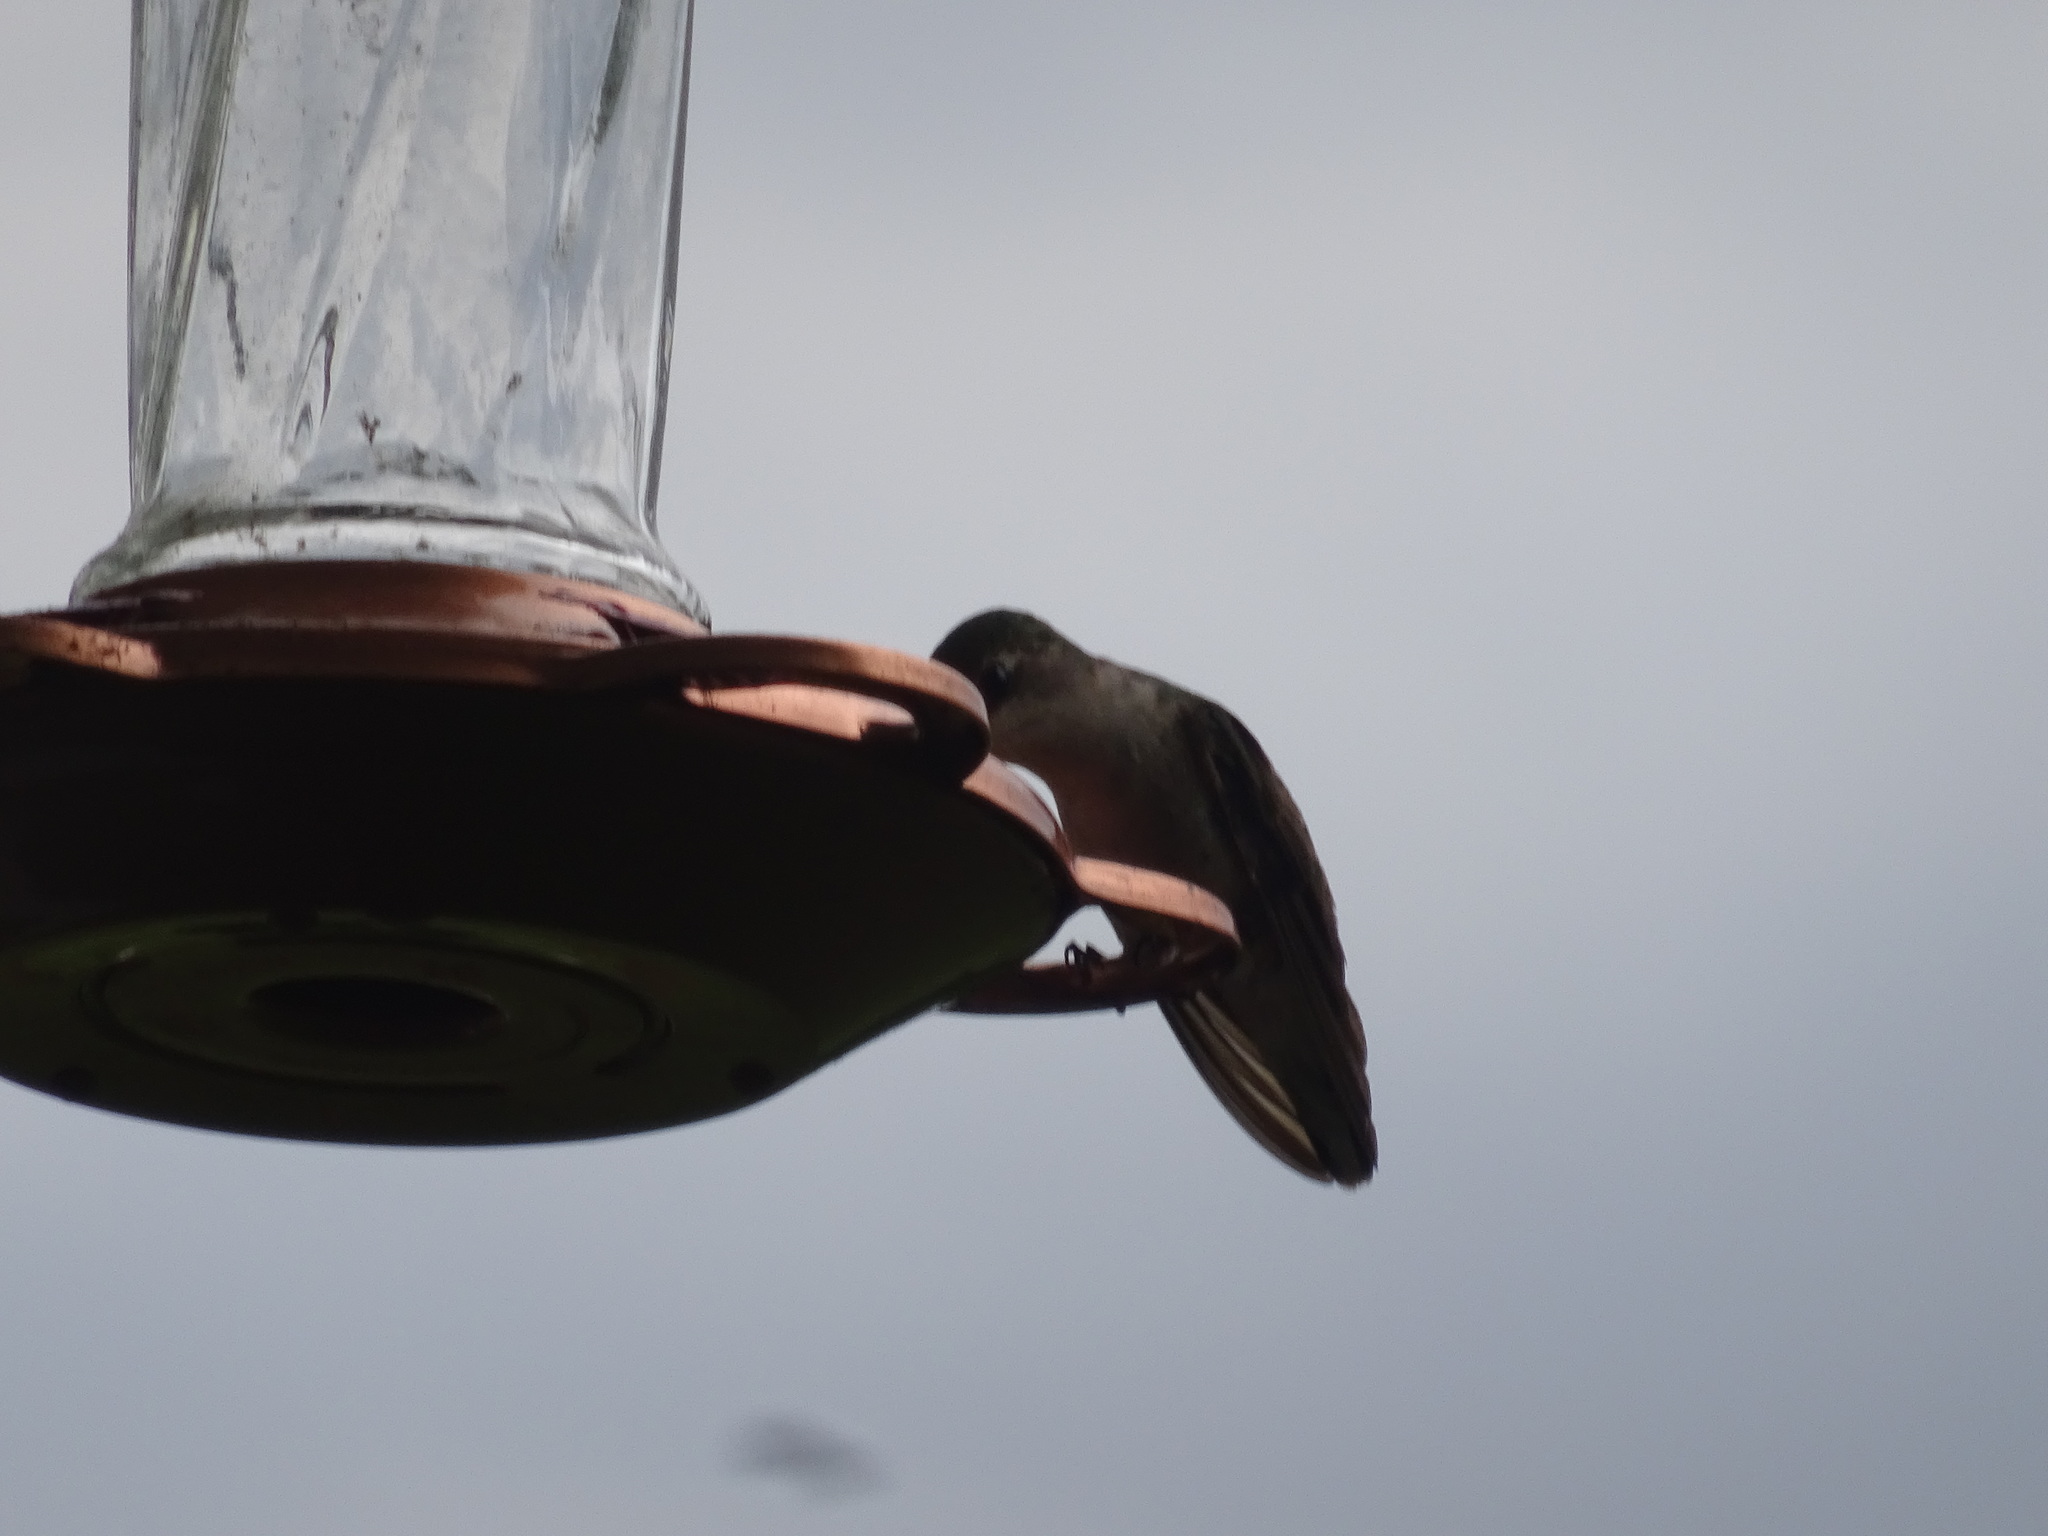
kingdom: Animalia
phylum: Chordata
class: Aves
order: Apodiformes
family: Trochilidae
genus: Archilochus
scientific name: Archilochus colubris
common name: Ruby-throated hummingbird
